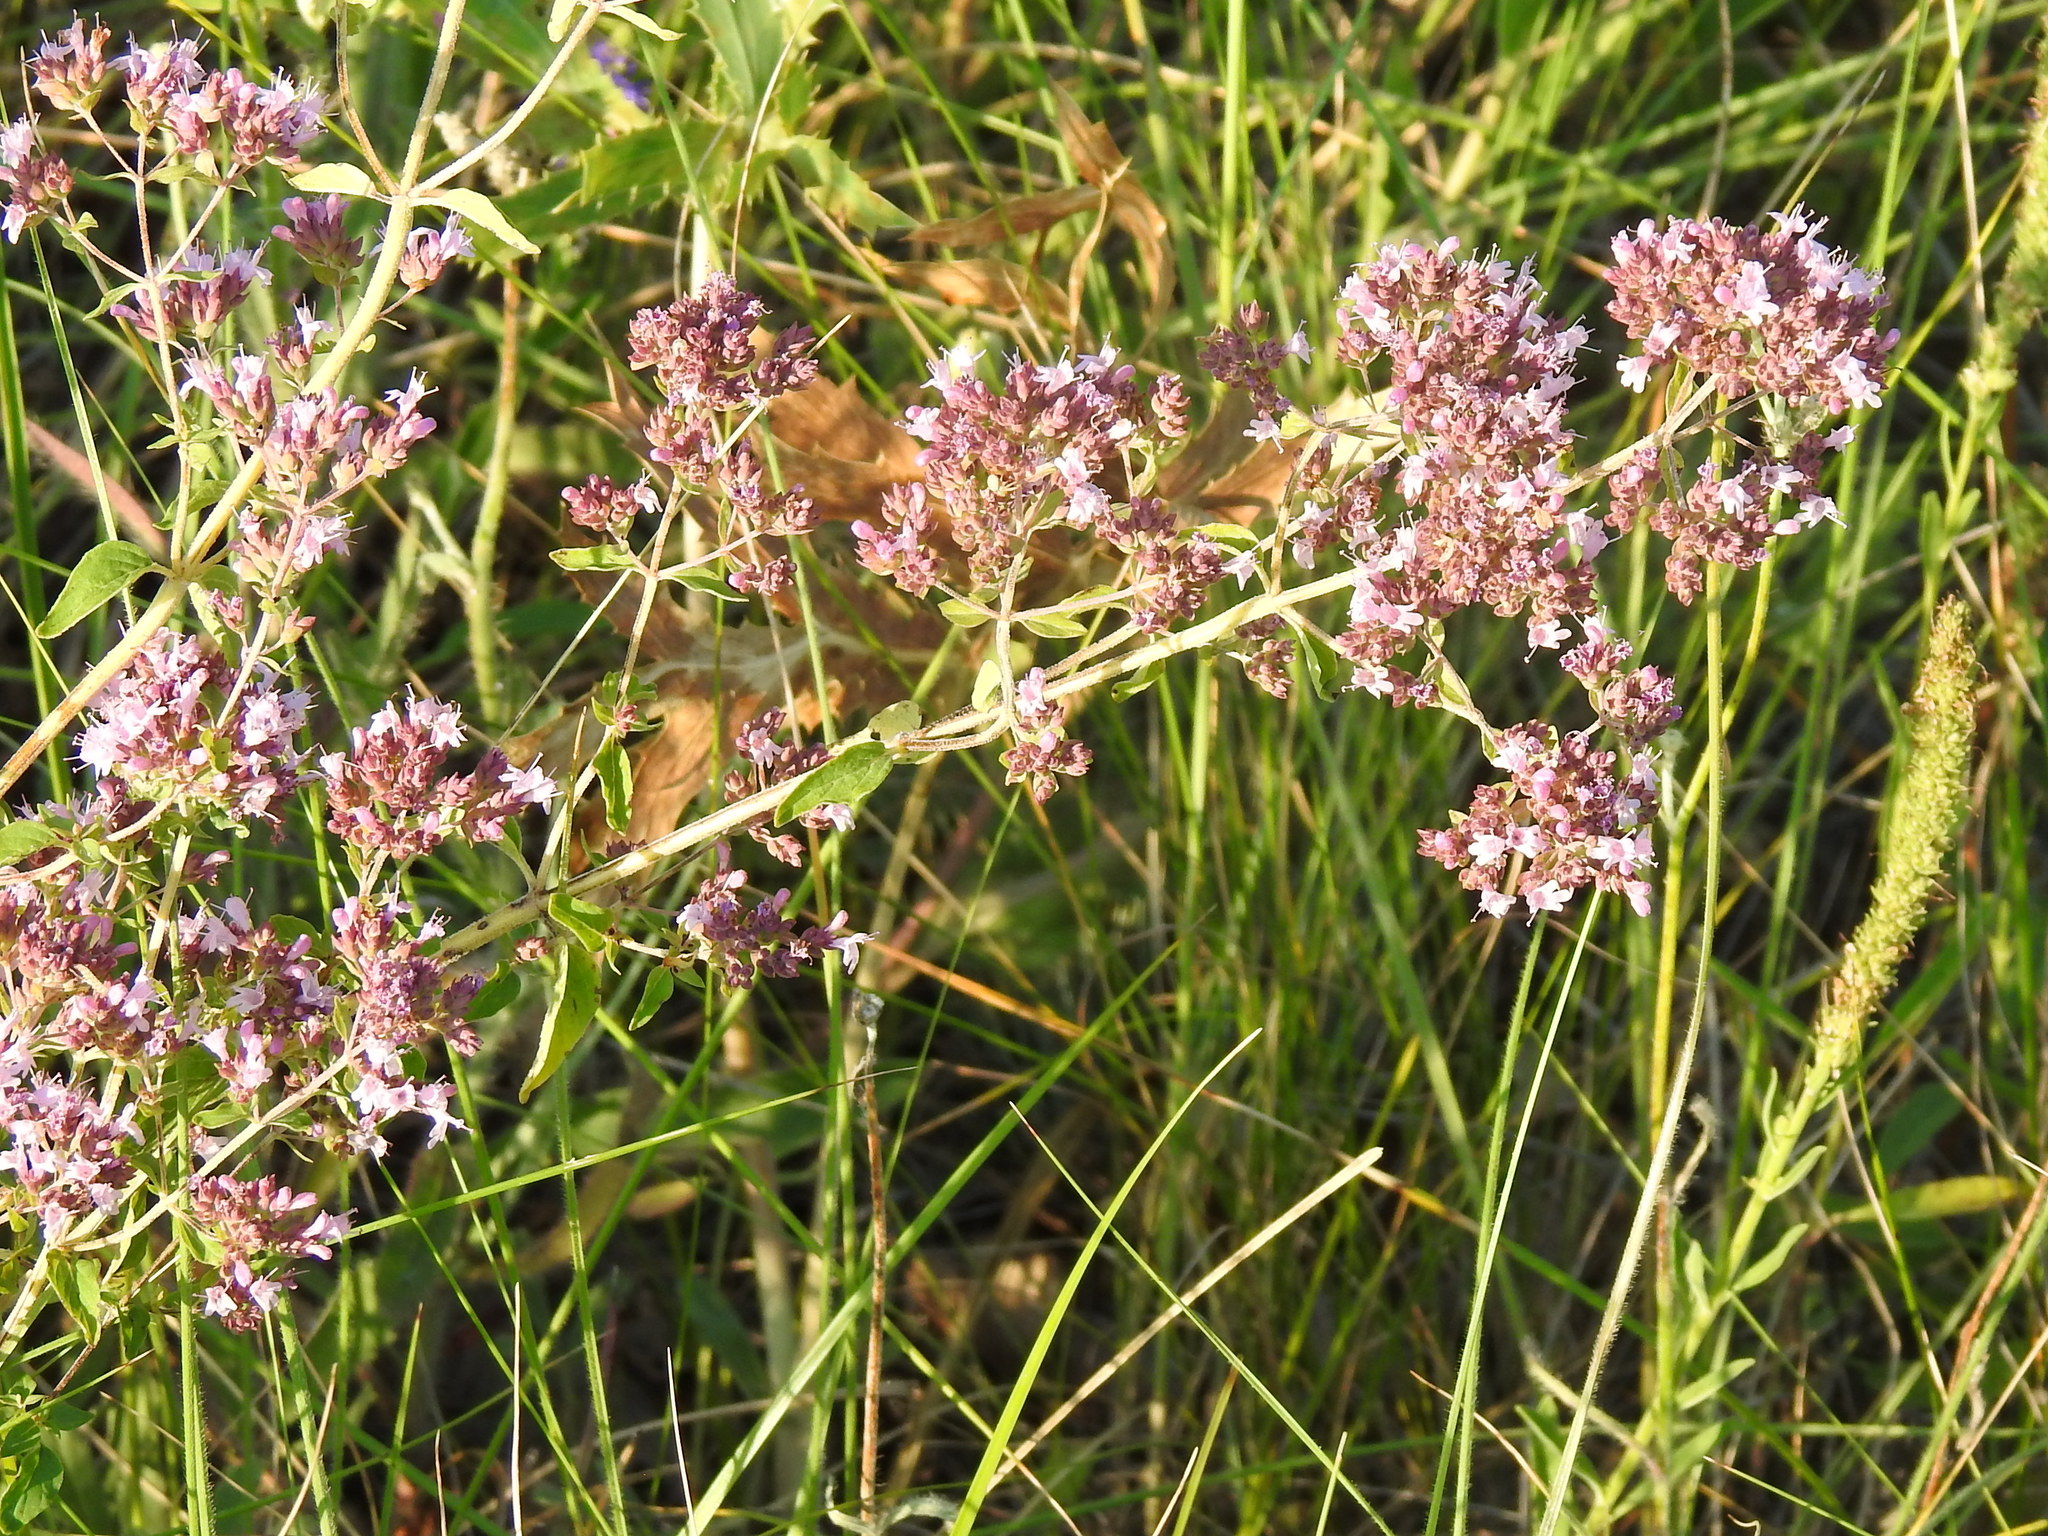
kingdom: Plantae
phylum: Tracheophyta
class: Magnoliopsida
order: Lamiales
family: Lamiaceae
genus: Origanum
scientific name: Origanum vulgare
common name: Wild marjoram
